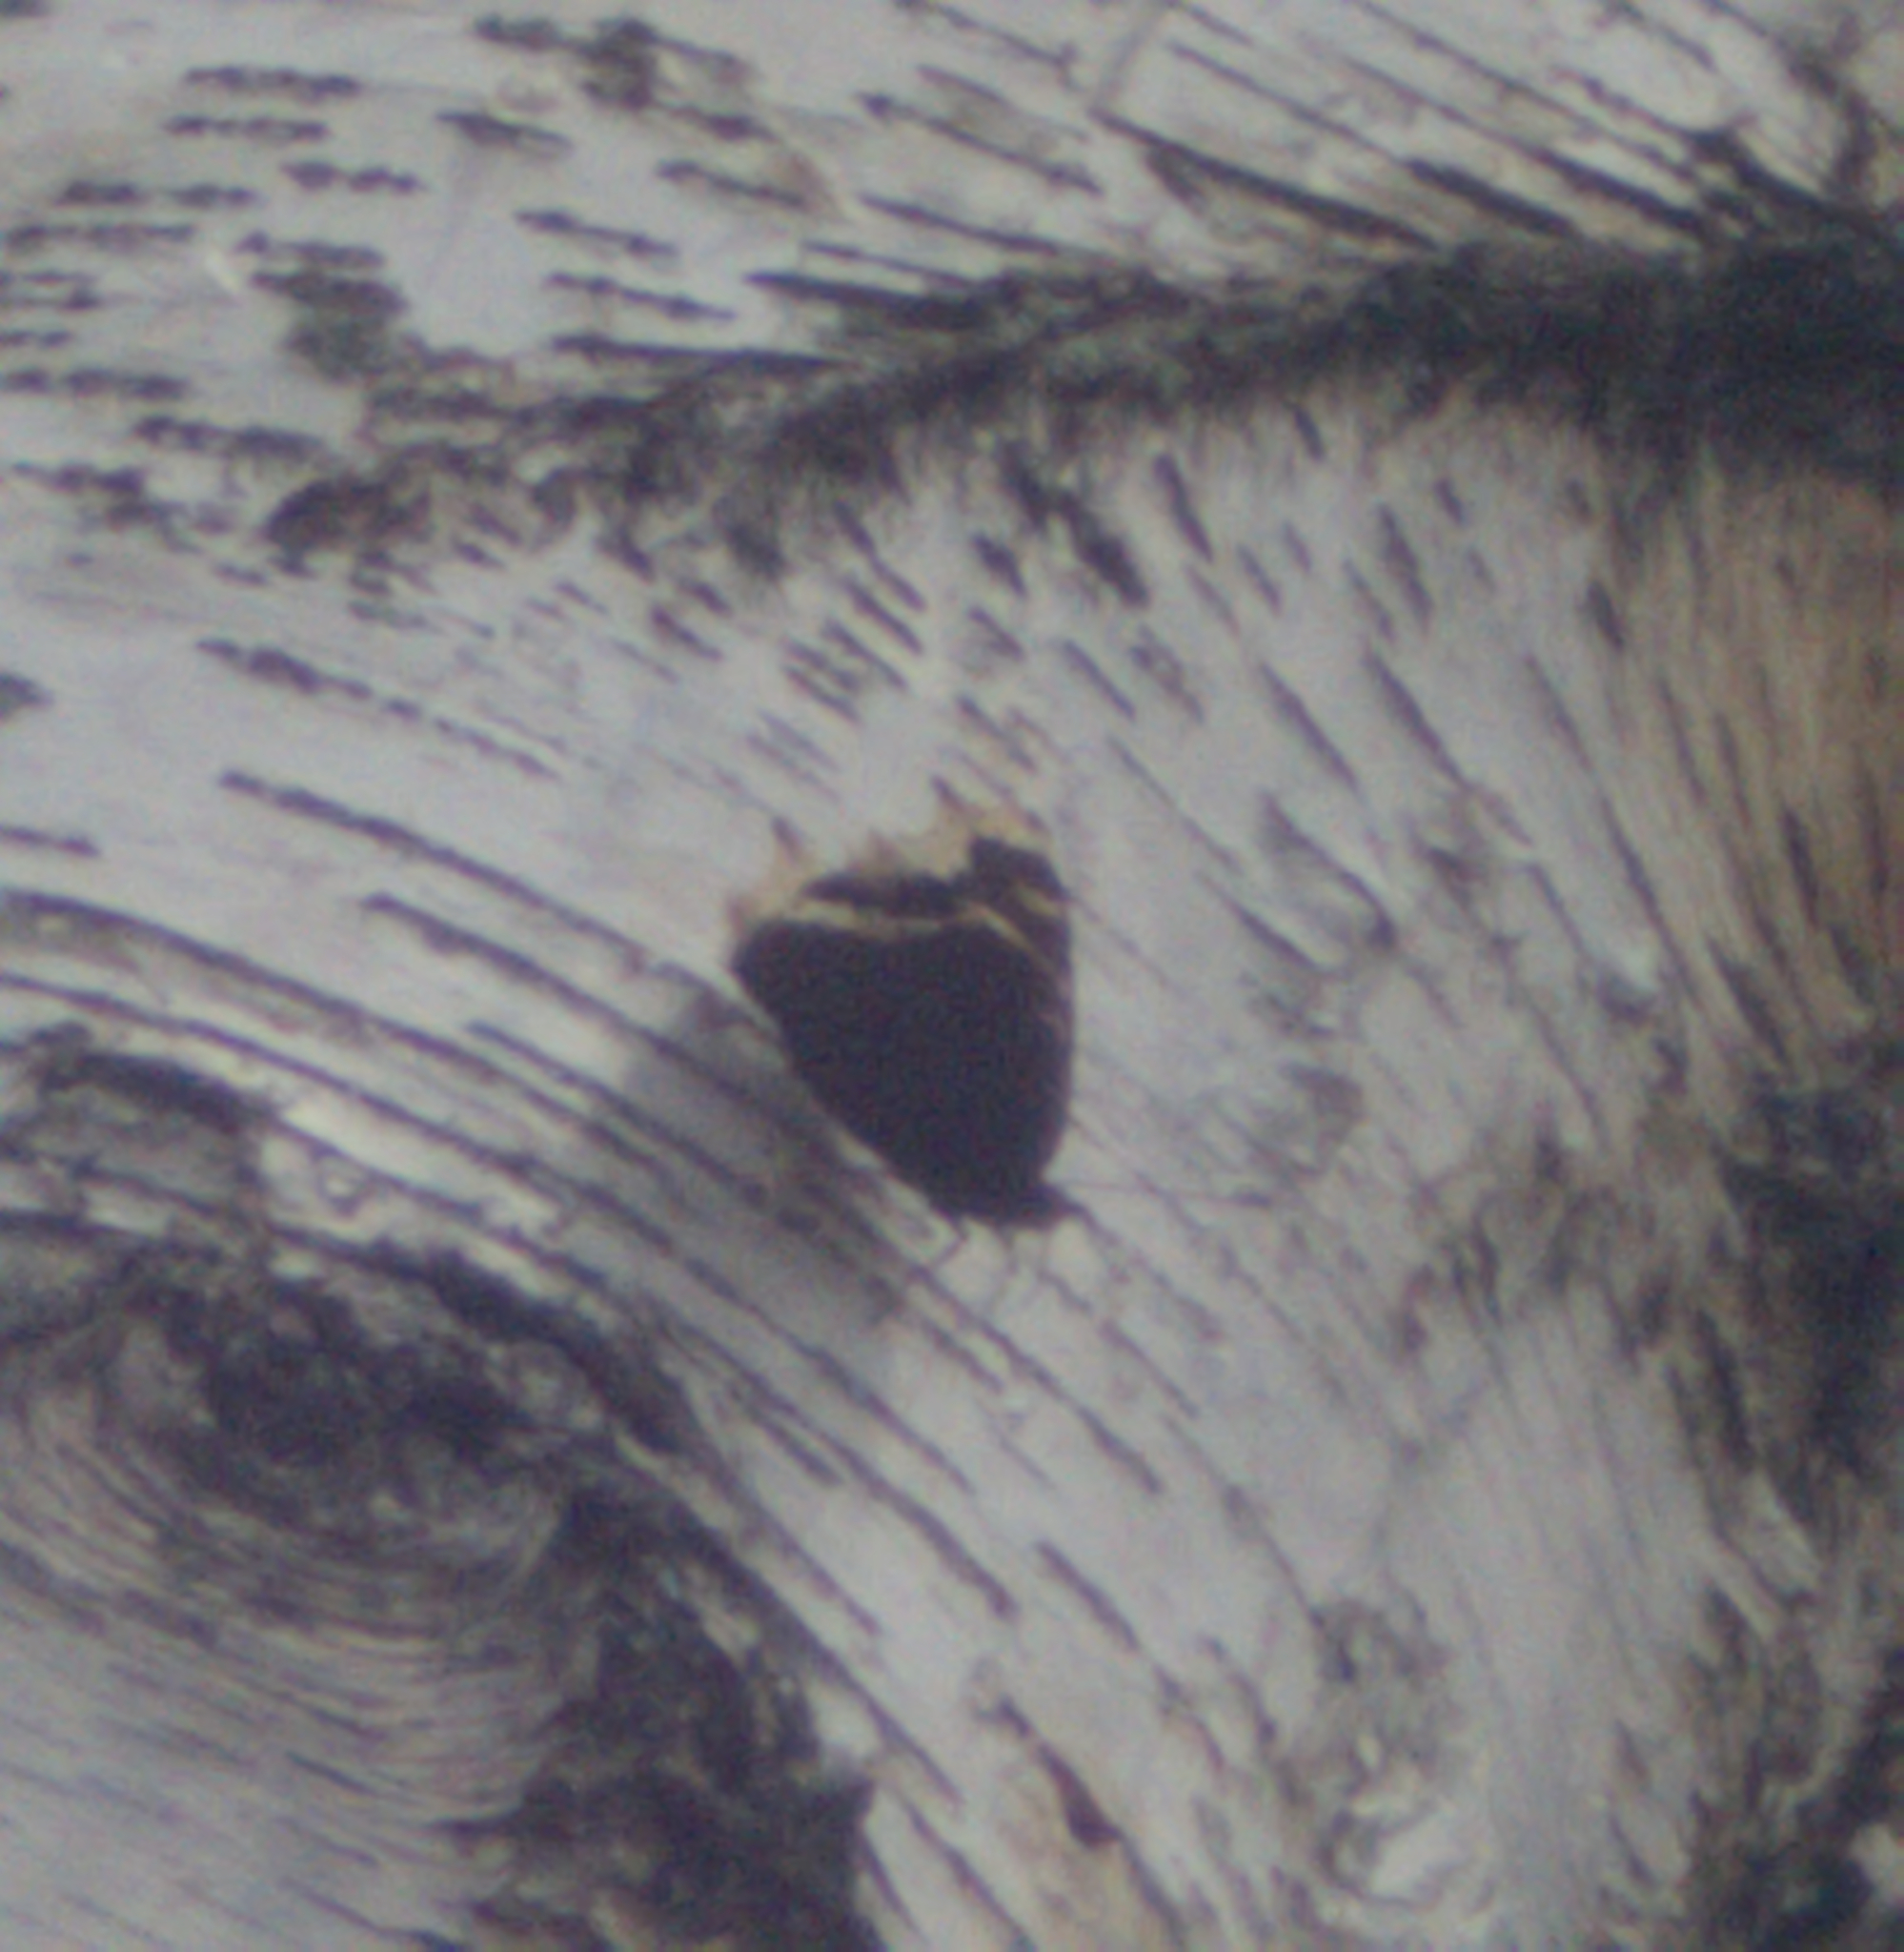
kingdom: Animalia
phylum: Arthropoda
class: Insecta
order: Lepidoptera
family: Nymphalidae
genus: Nymphalis
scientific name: Nymphalis antiopa
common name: Camberwell beauty
